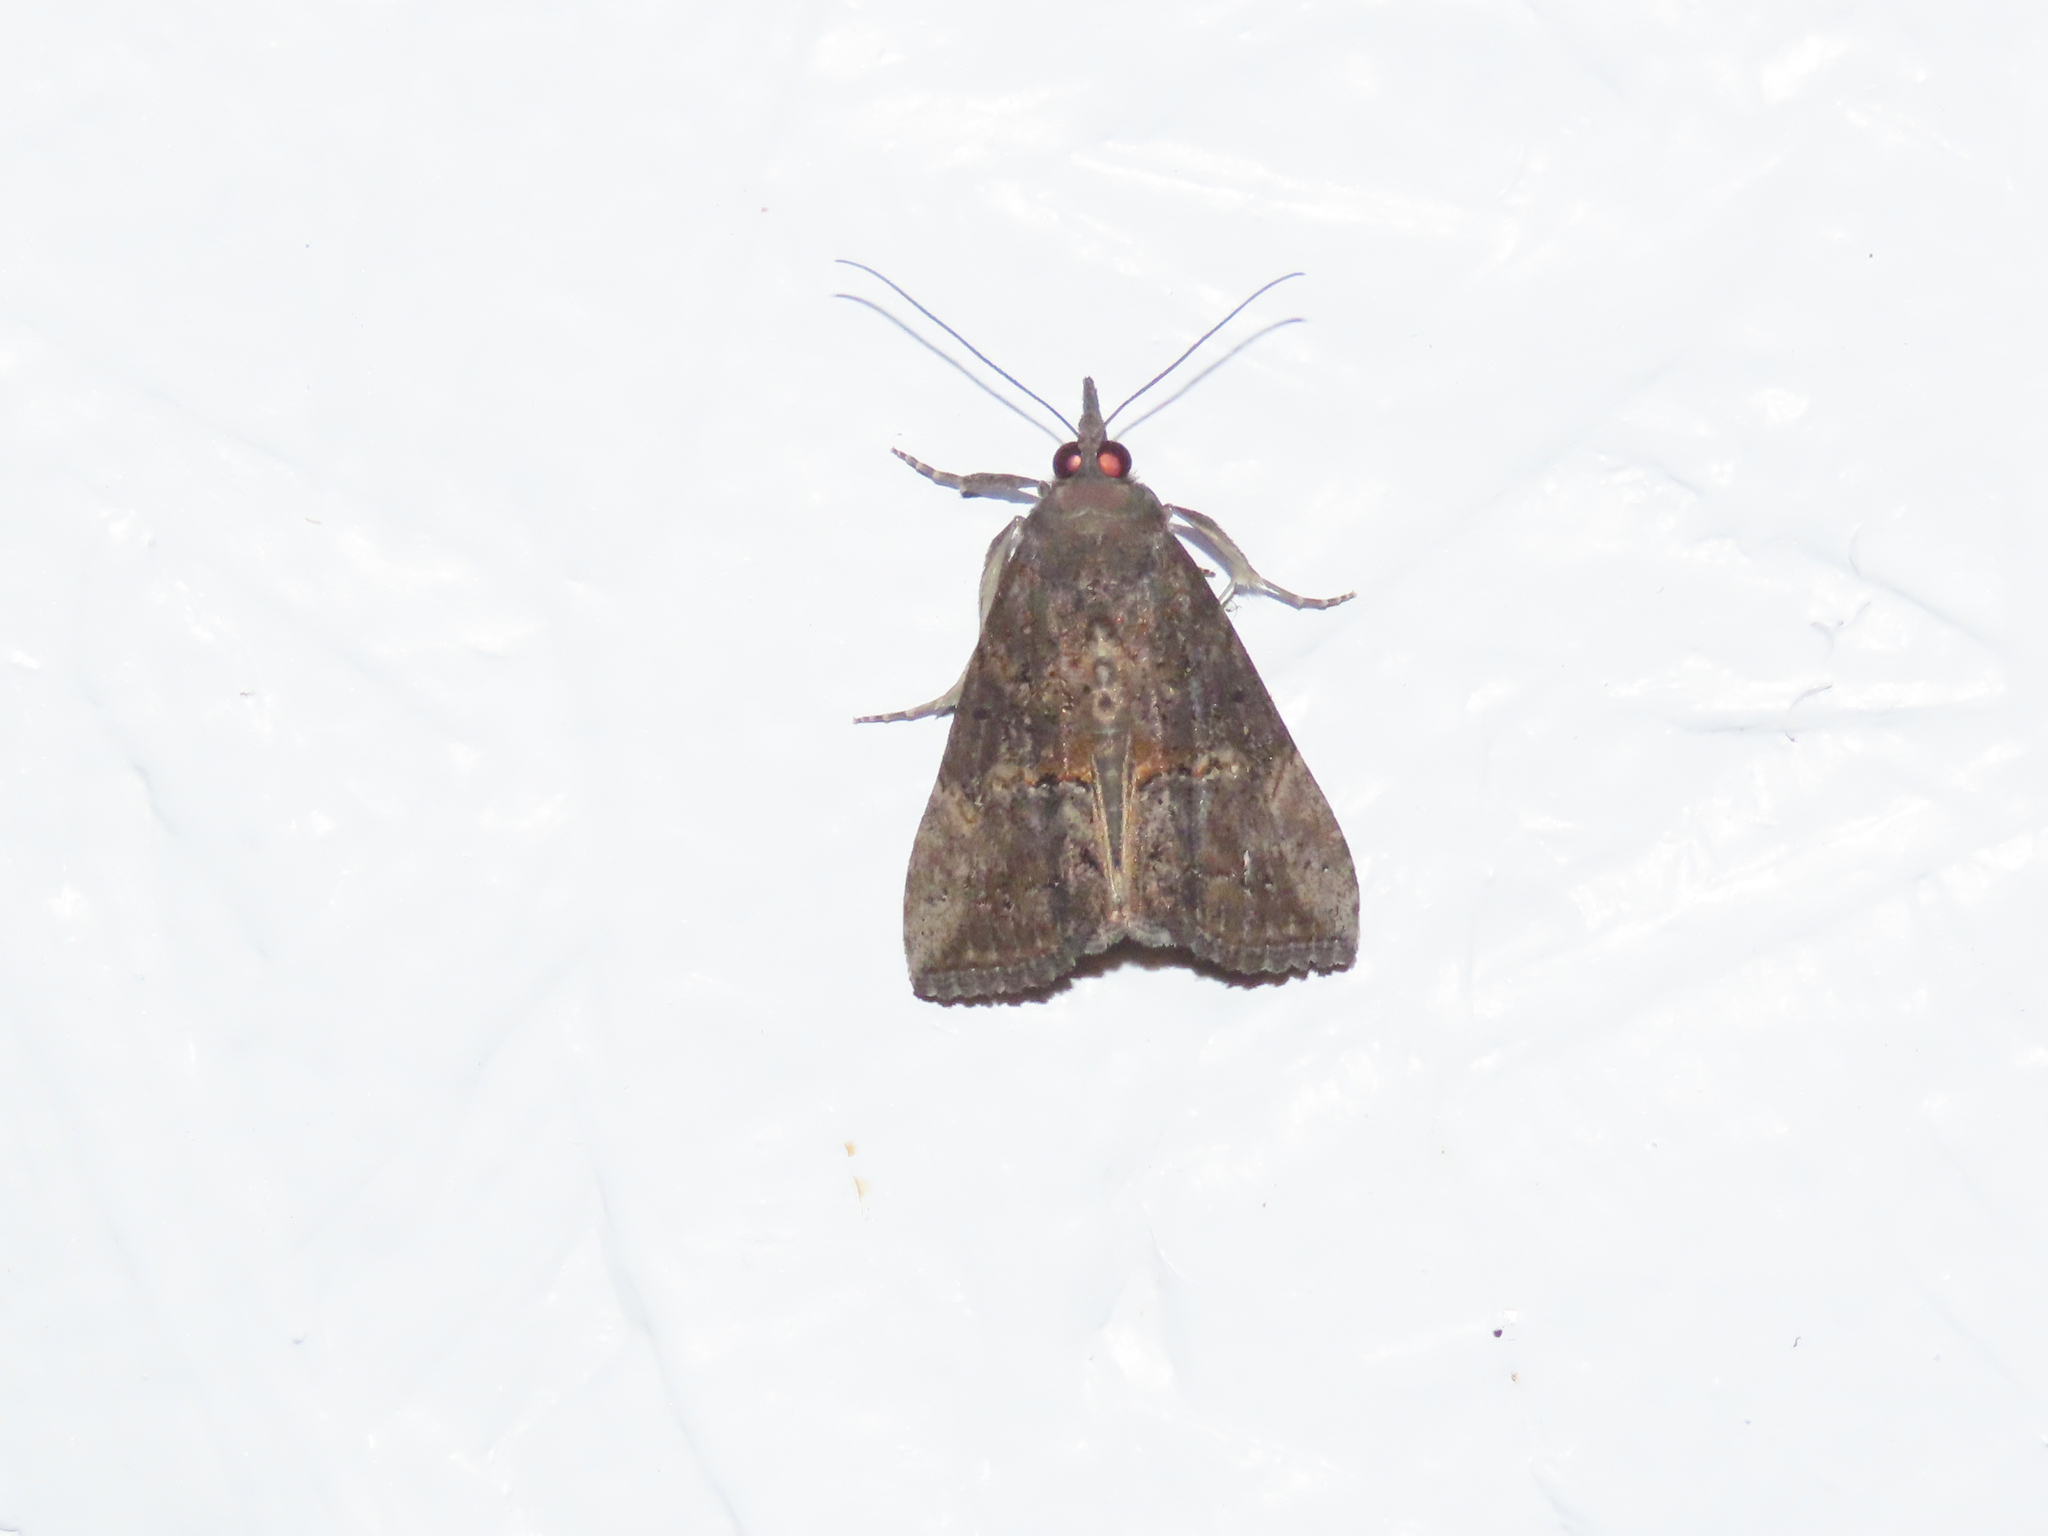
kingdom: Animalia
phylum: Arthropoda
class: Insecta
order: Lepidoptera
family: Erebidae
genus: Hypena
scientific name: Hypena scabra
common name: Green cloverworm
